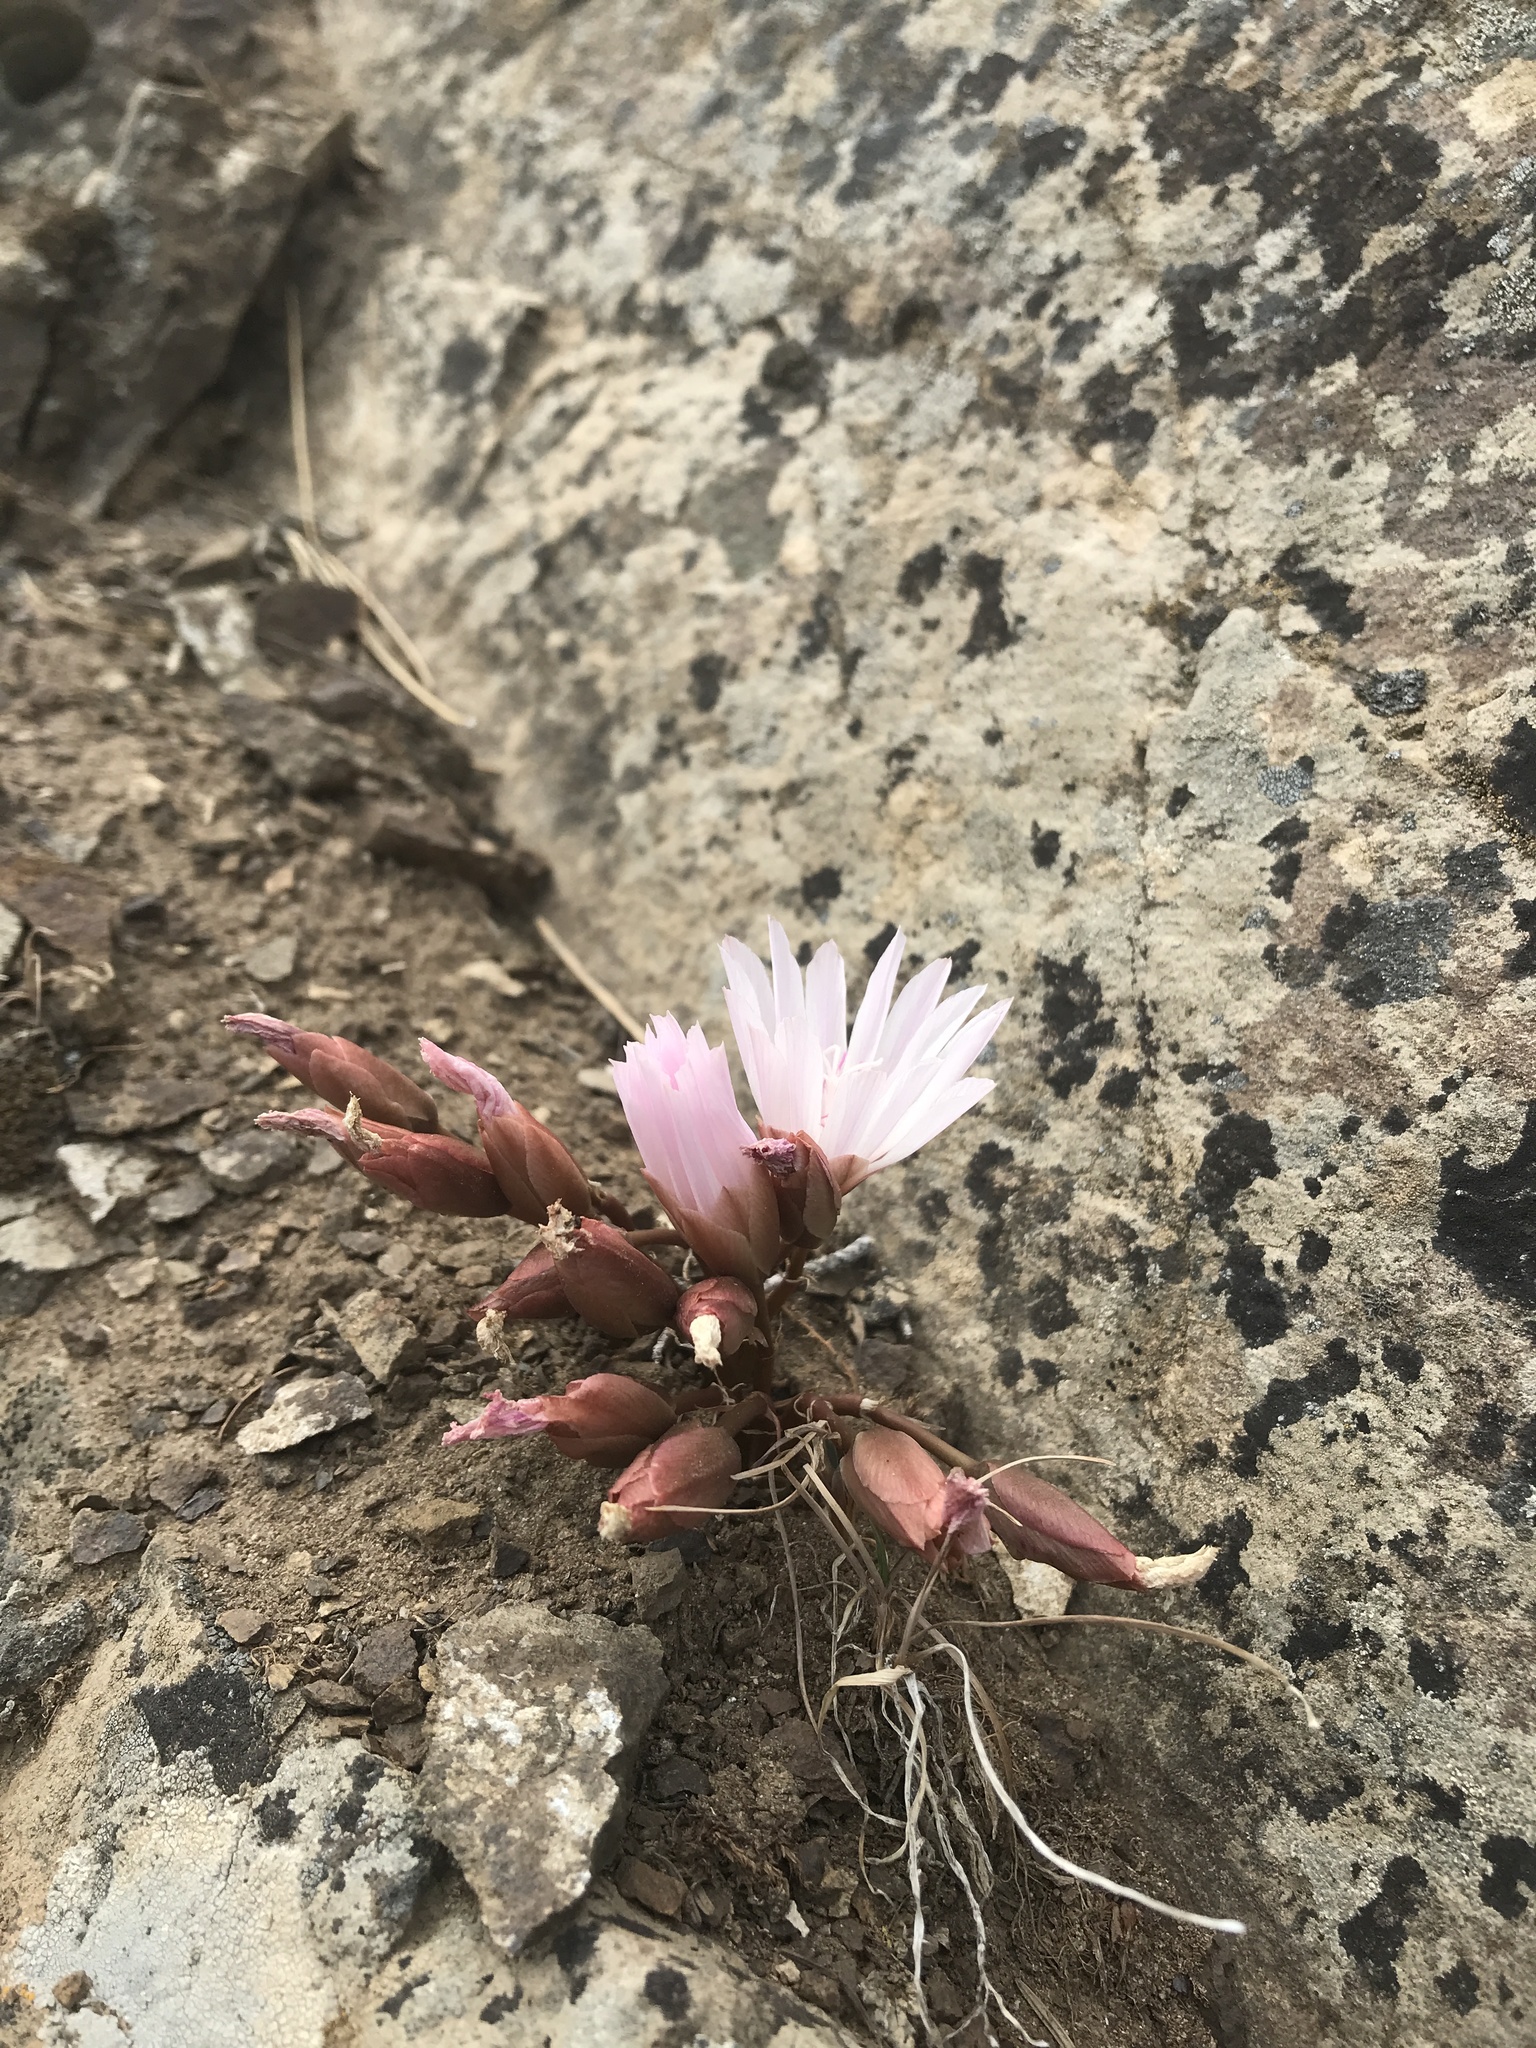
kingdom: Plantae
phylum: Tracheophyta
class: Magnoliopsida
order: Caryophyllales
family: Montiaceae
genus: Lewisia
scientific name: Lewisia rediviva
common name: Bitter-root
